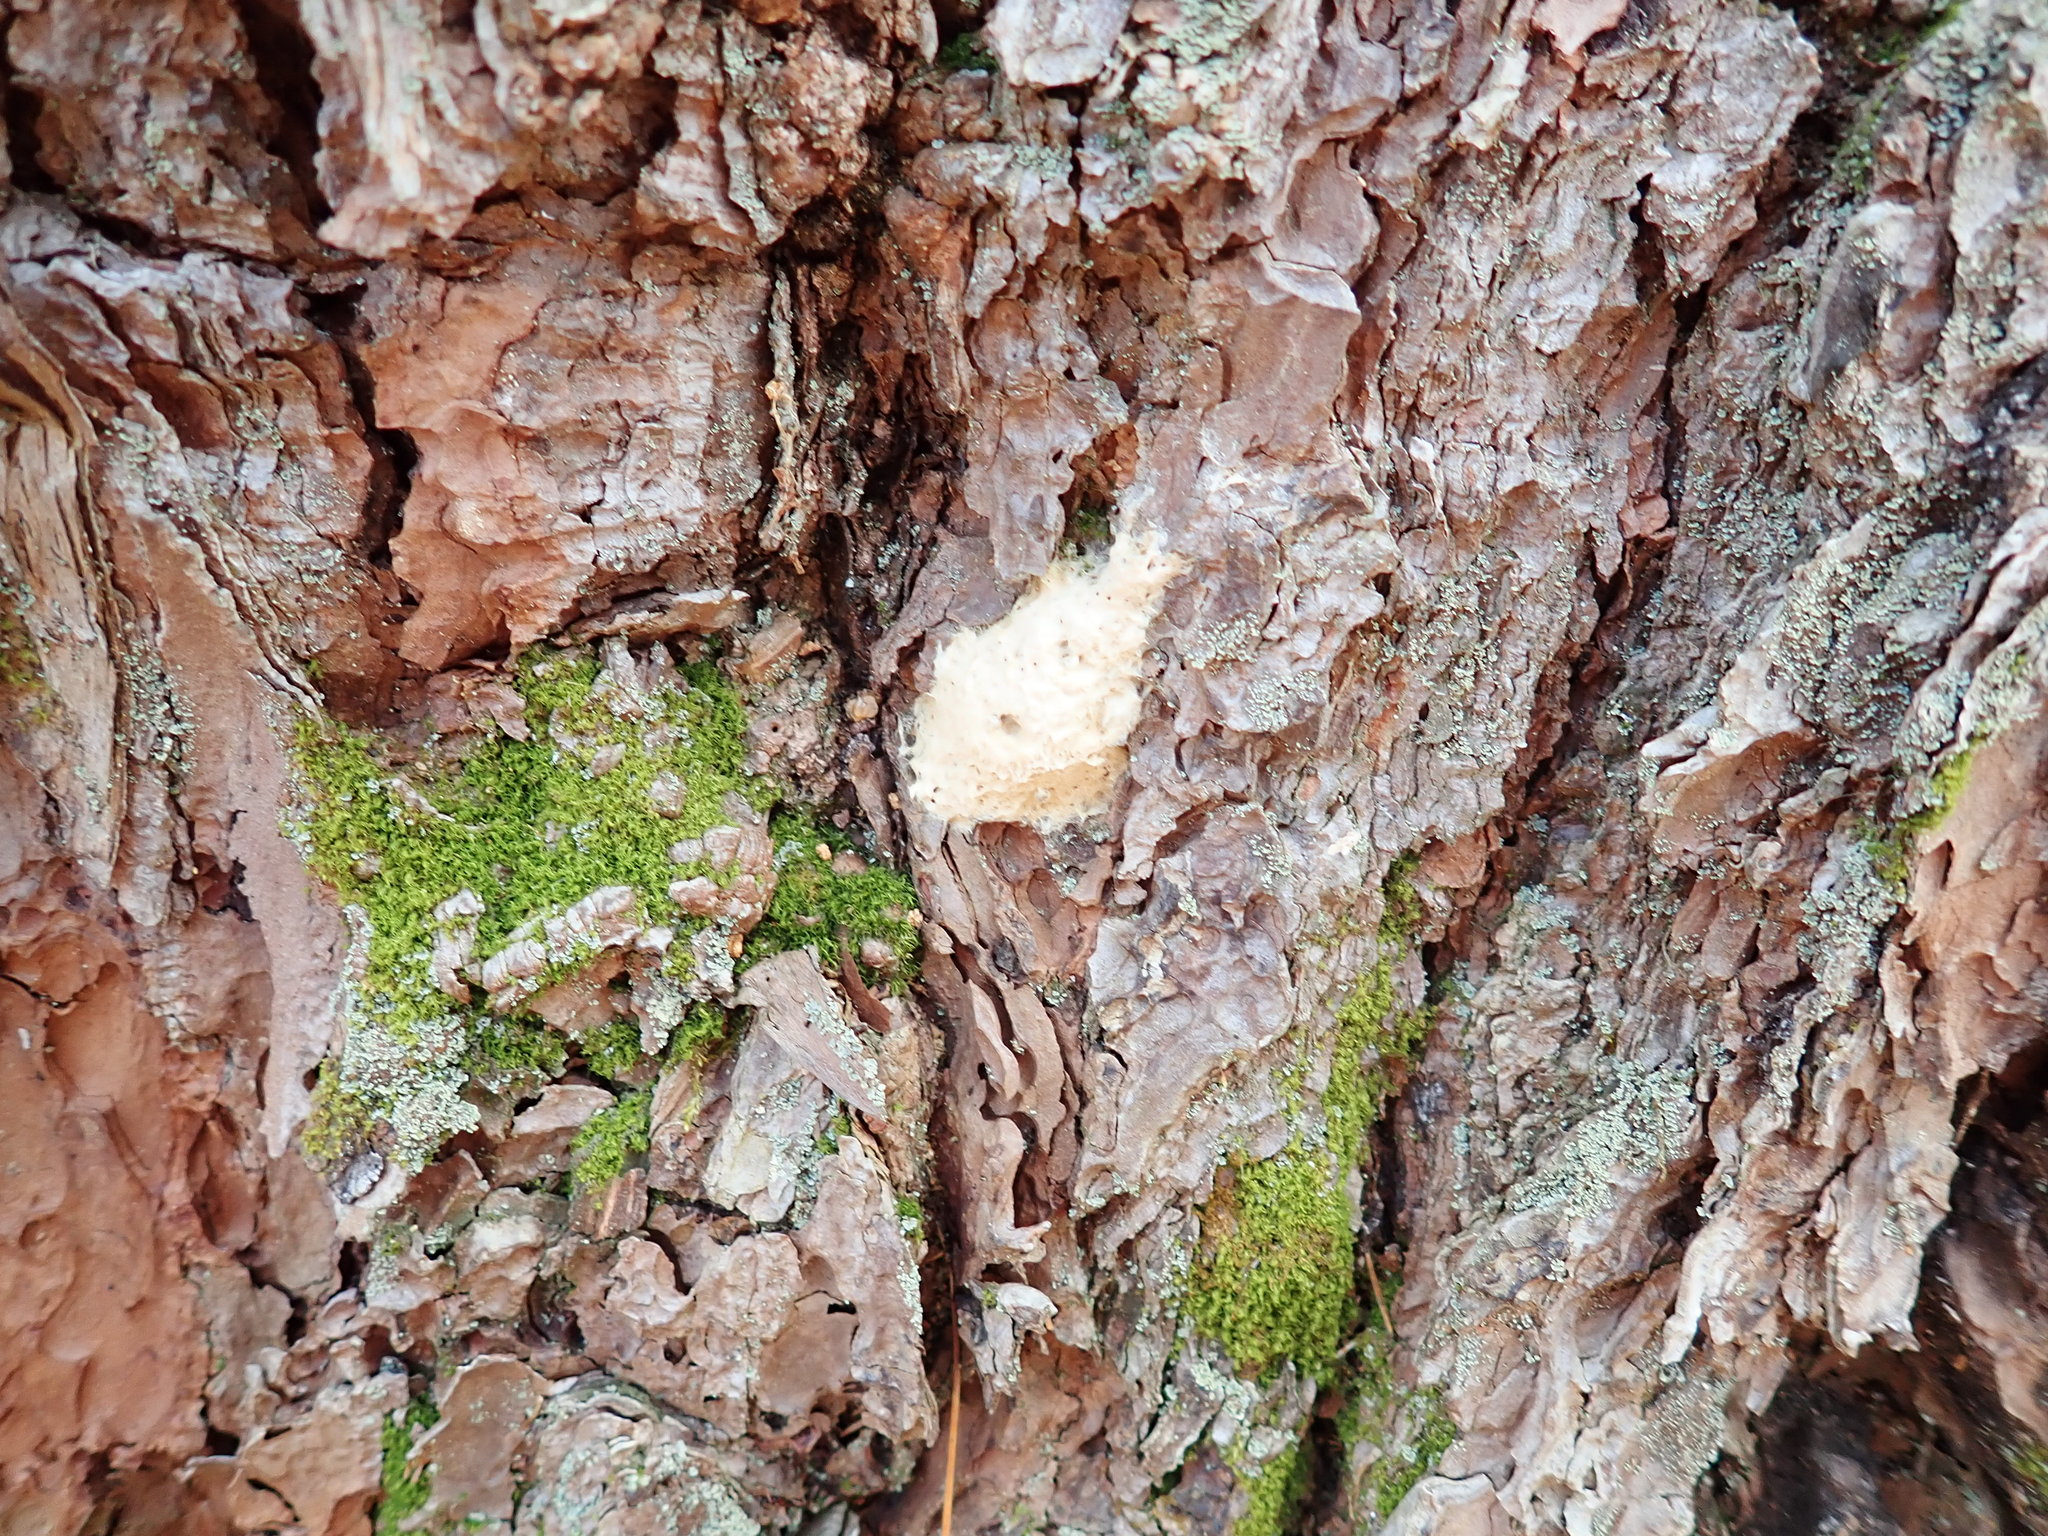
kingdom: Animalia
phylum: Arthropoda
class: Insecta
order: Lepidoptera
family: Erebidae
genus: Lymantria
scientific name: Lymantria dispar
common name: Gypsy moth
